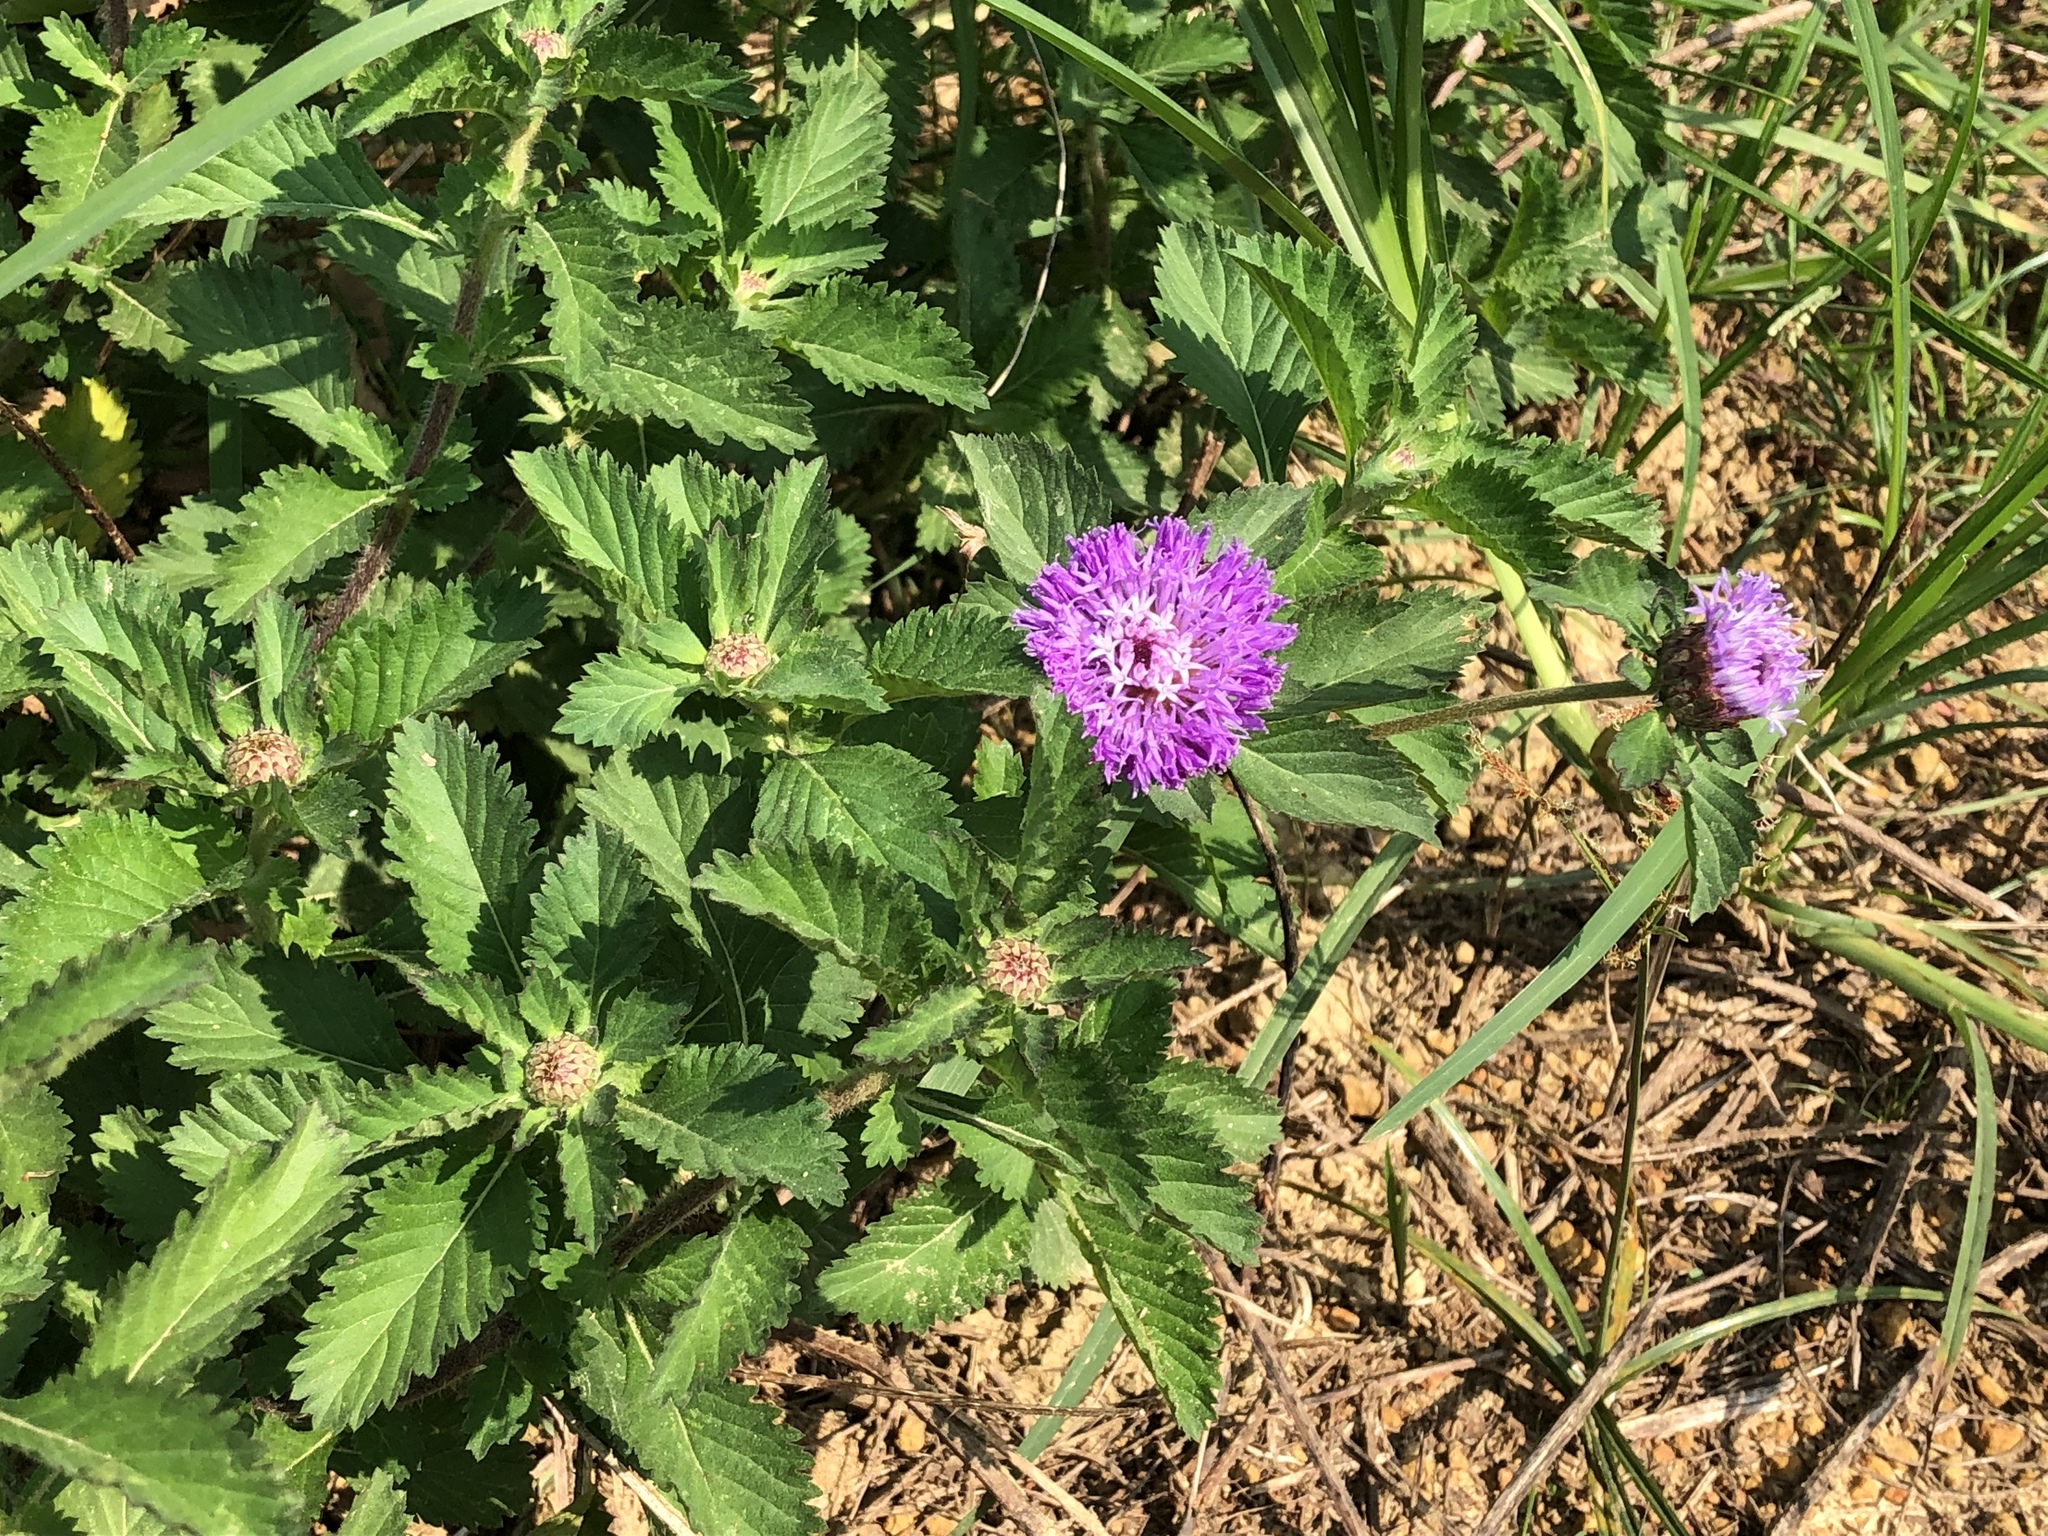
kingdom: Plantae
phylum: Tracheophyta
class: Magnoliopsida
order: Asterales
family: Asteraceae
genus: Centratherum
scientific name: Centratherum punctatum
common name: Larkdaisy
